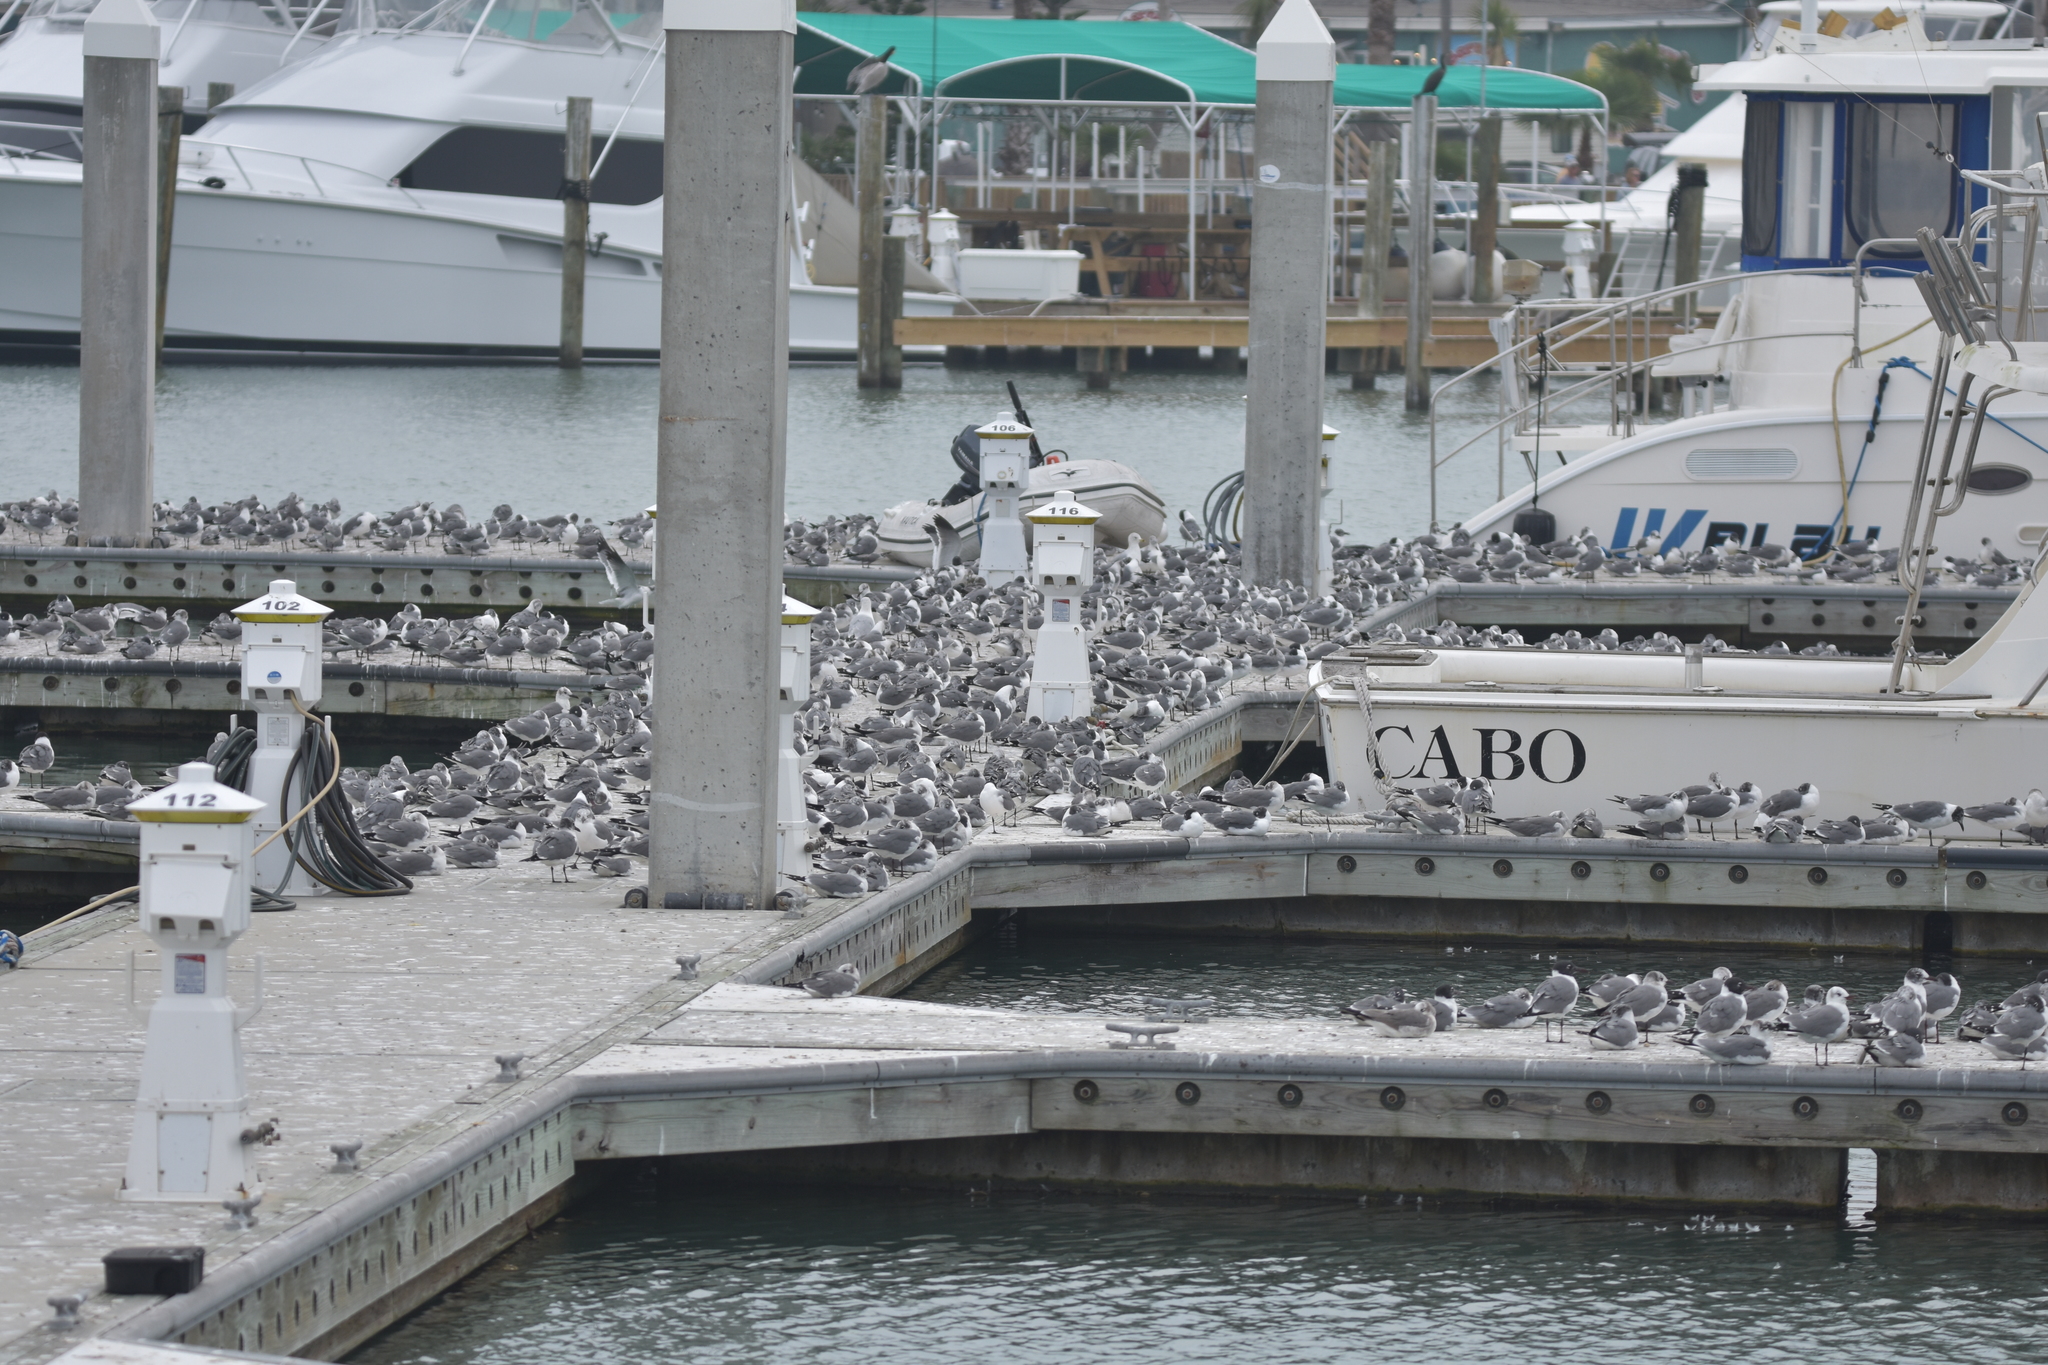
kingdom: Animalia
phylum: Chordata
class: Aves
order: Charadriiformes
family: Laridae
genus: Leucophaeus
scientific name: Leucophaeus atricilla
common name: Laughing gull
